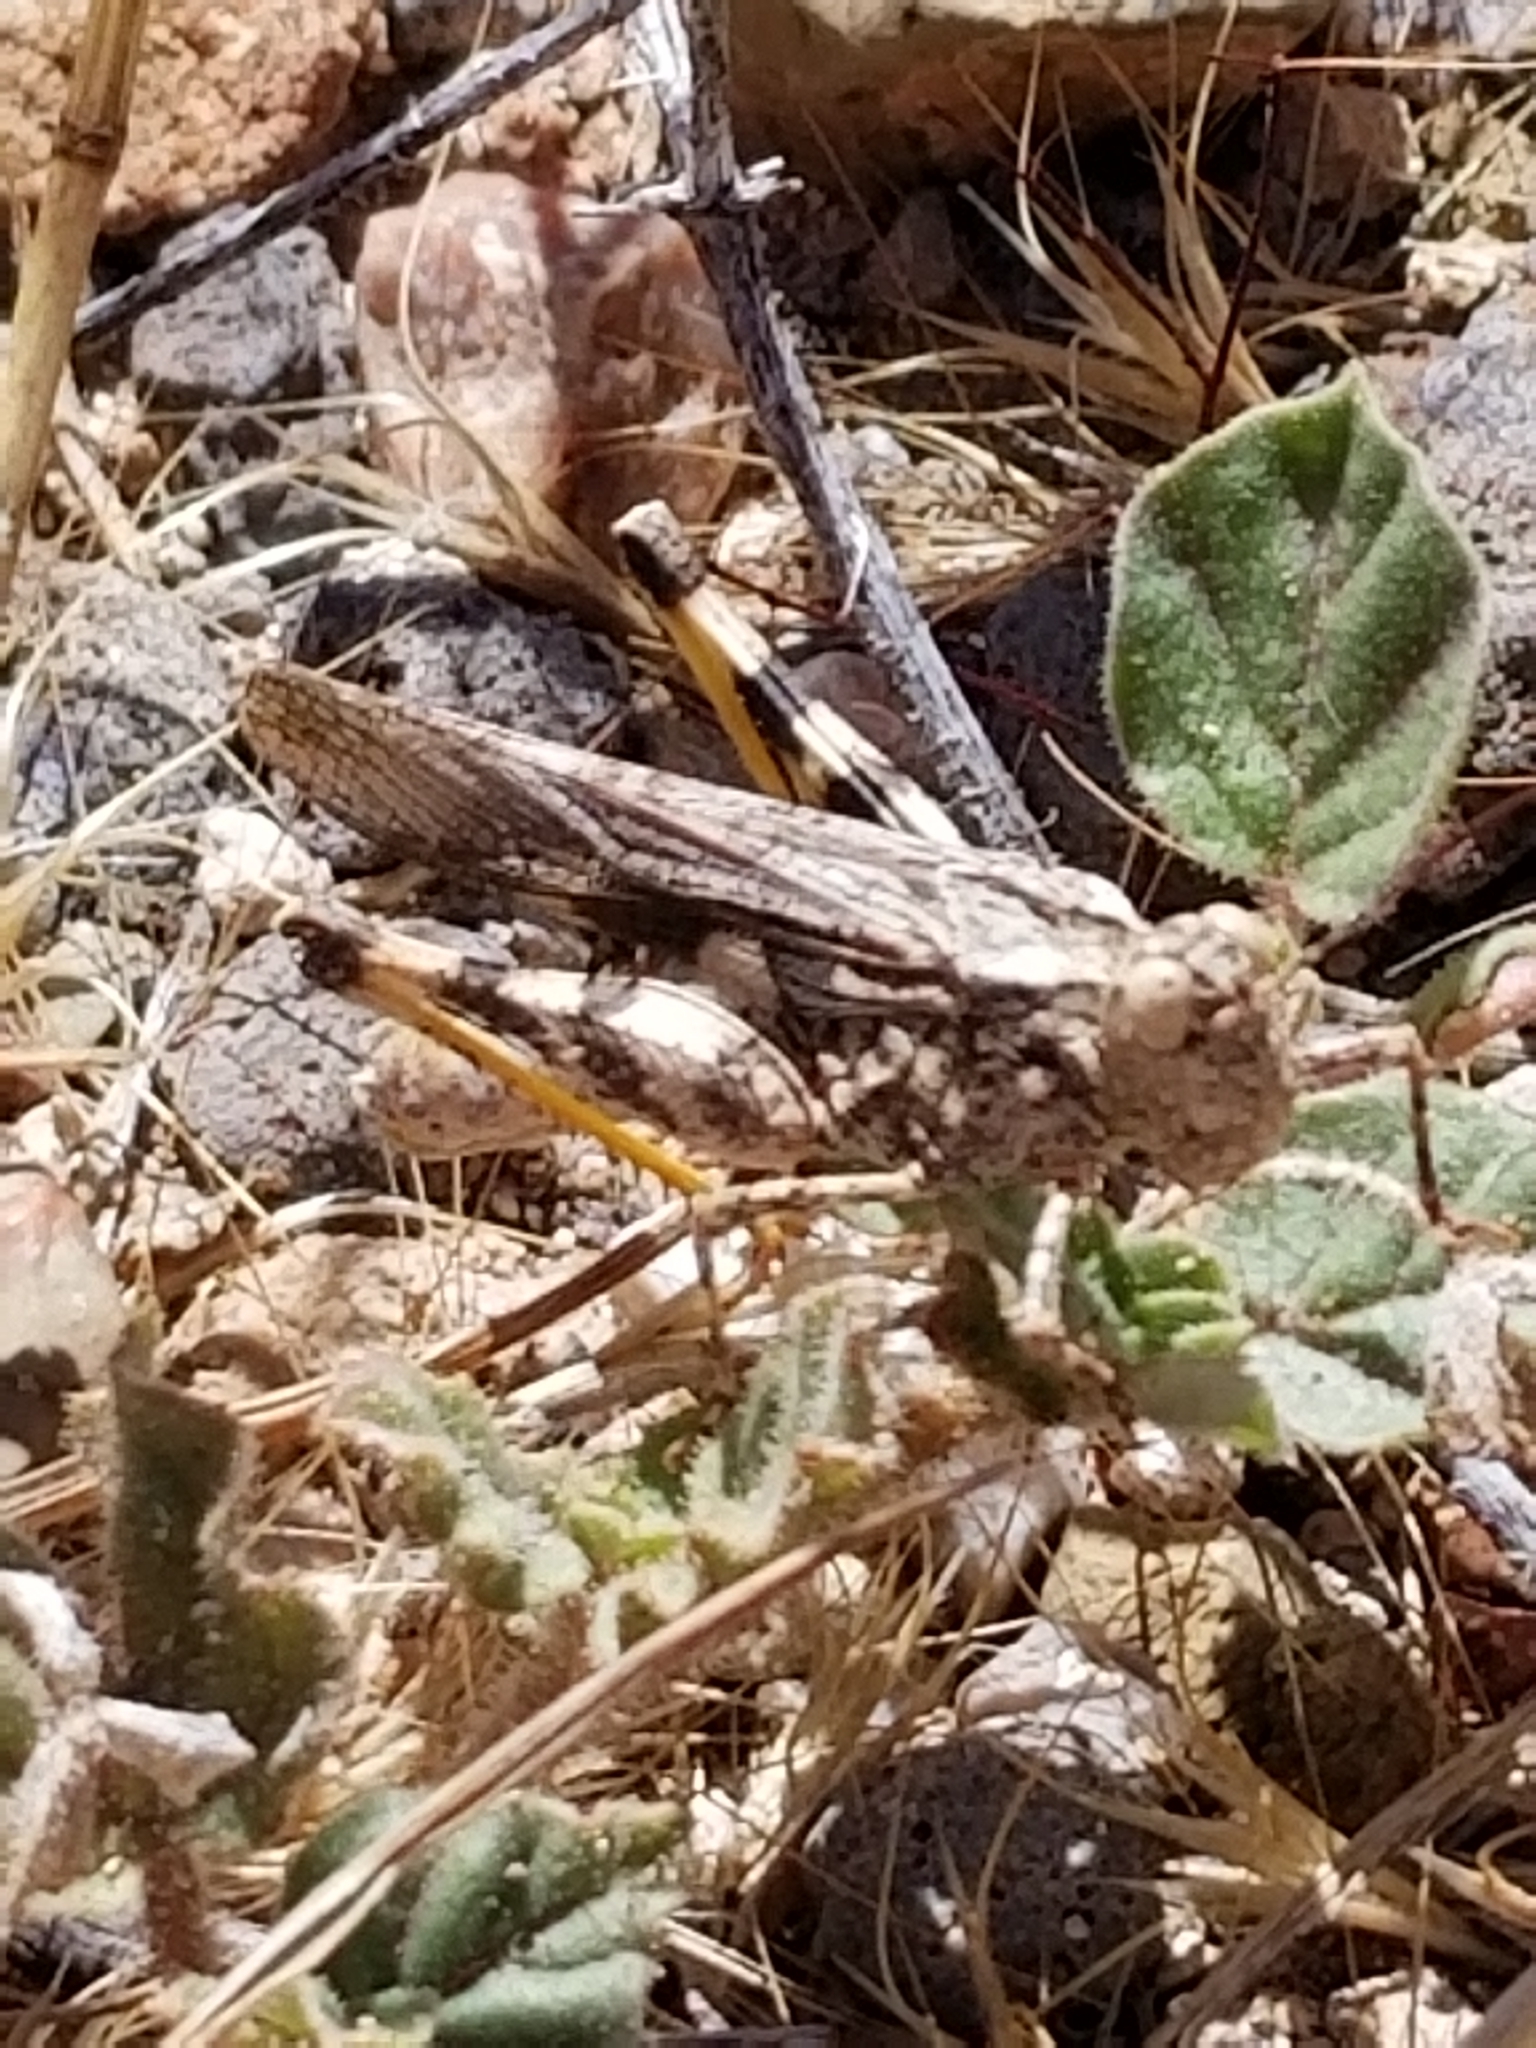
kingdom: Animalia
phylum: Arthropoda
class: Insecta
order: Orthoptera
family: Acrididae
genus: Conozoa
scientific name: Conozoa carinata
